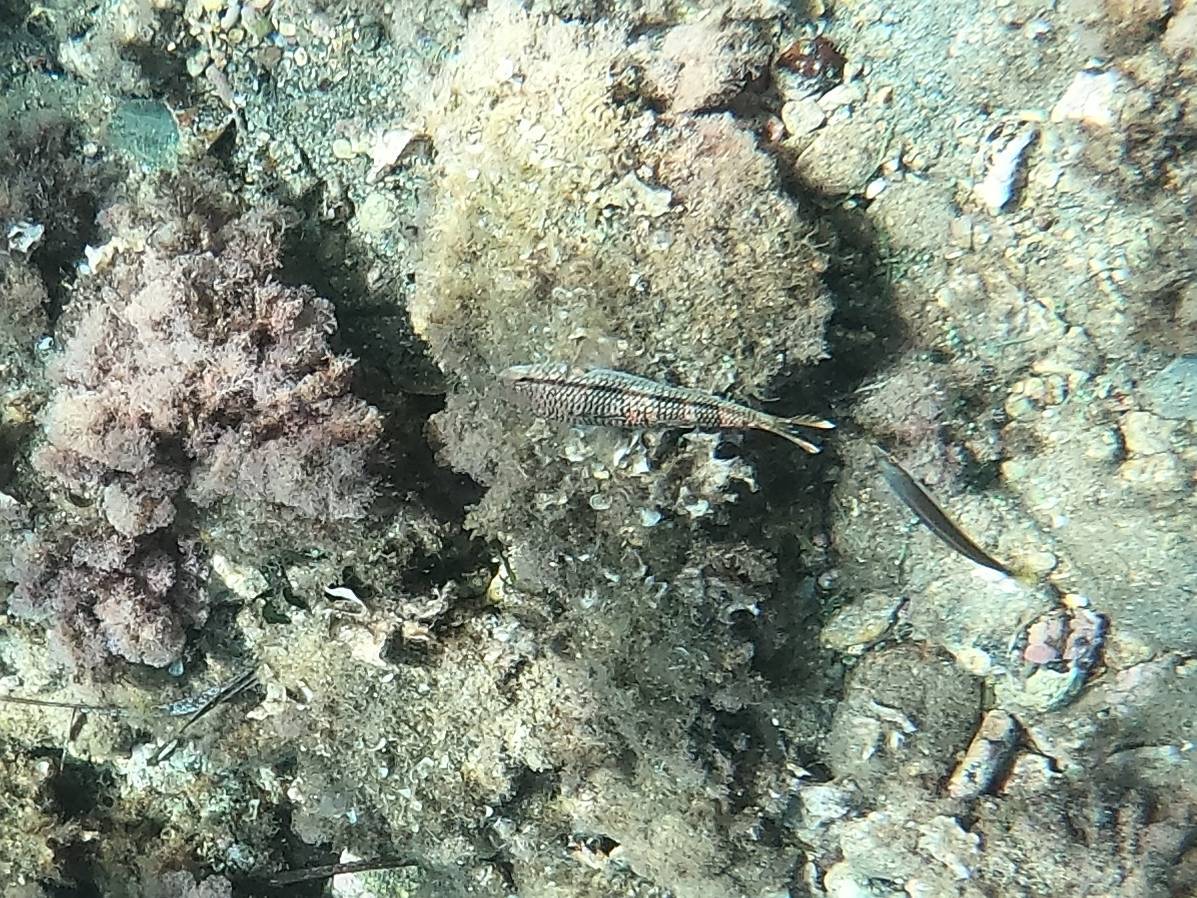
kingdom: Animalia
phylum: Chordata
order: Perciformes
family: Mullidae
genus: Mullus
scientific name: Mullus surmuletus
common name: Red mullet
